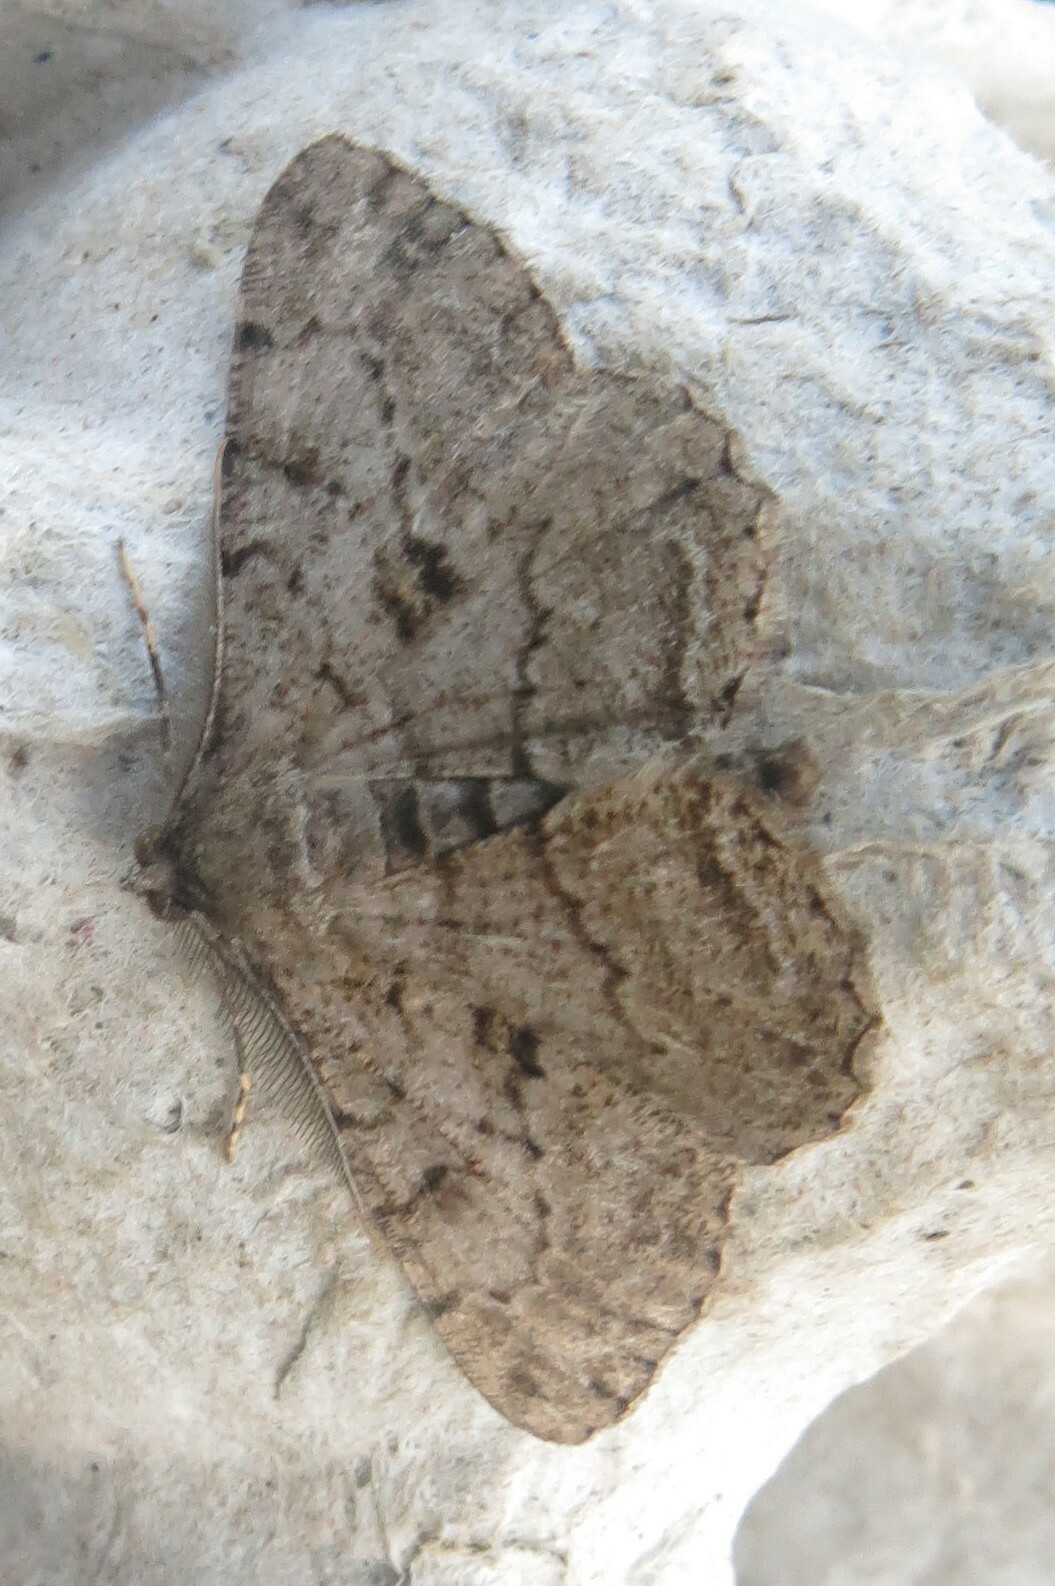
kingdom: Animalia
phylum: Arthropoda
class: Insecta
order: Lepidoptera
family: Geometridae
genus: Peribatodes
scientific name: Peribatodes rhomboidaria
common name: Willow beauty
